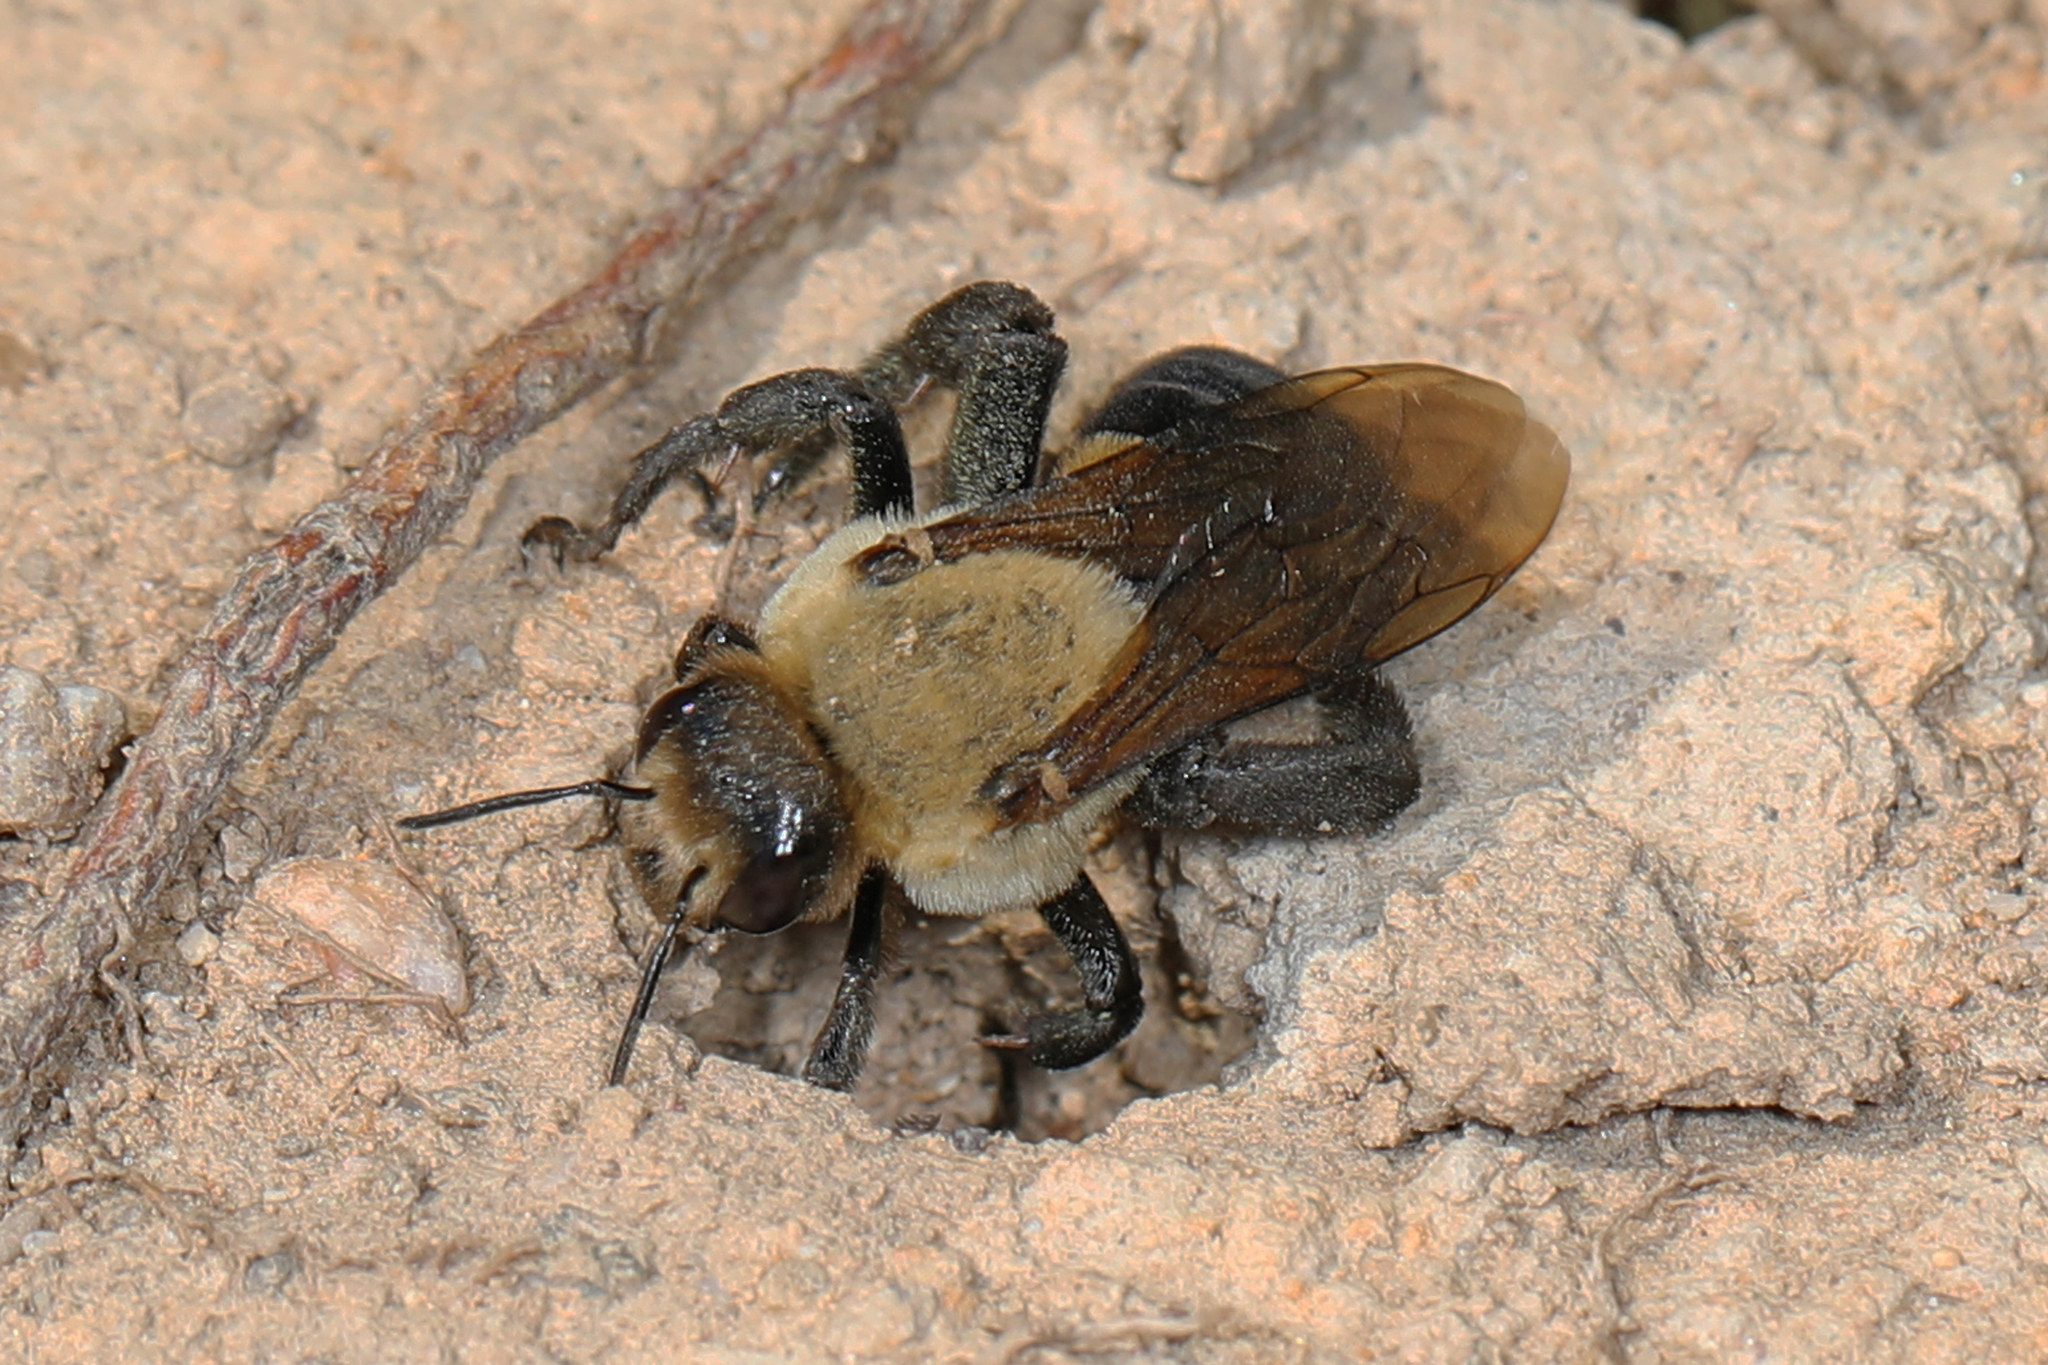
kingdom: Animalia
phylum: Arthropoda
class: Insecta
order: Hymenoptera
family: Apidae
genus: Ptilothrix
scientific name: Ptilothrix bombiformis
